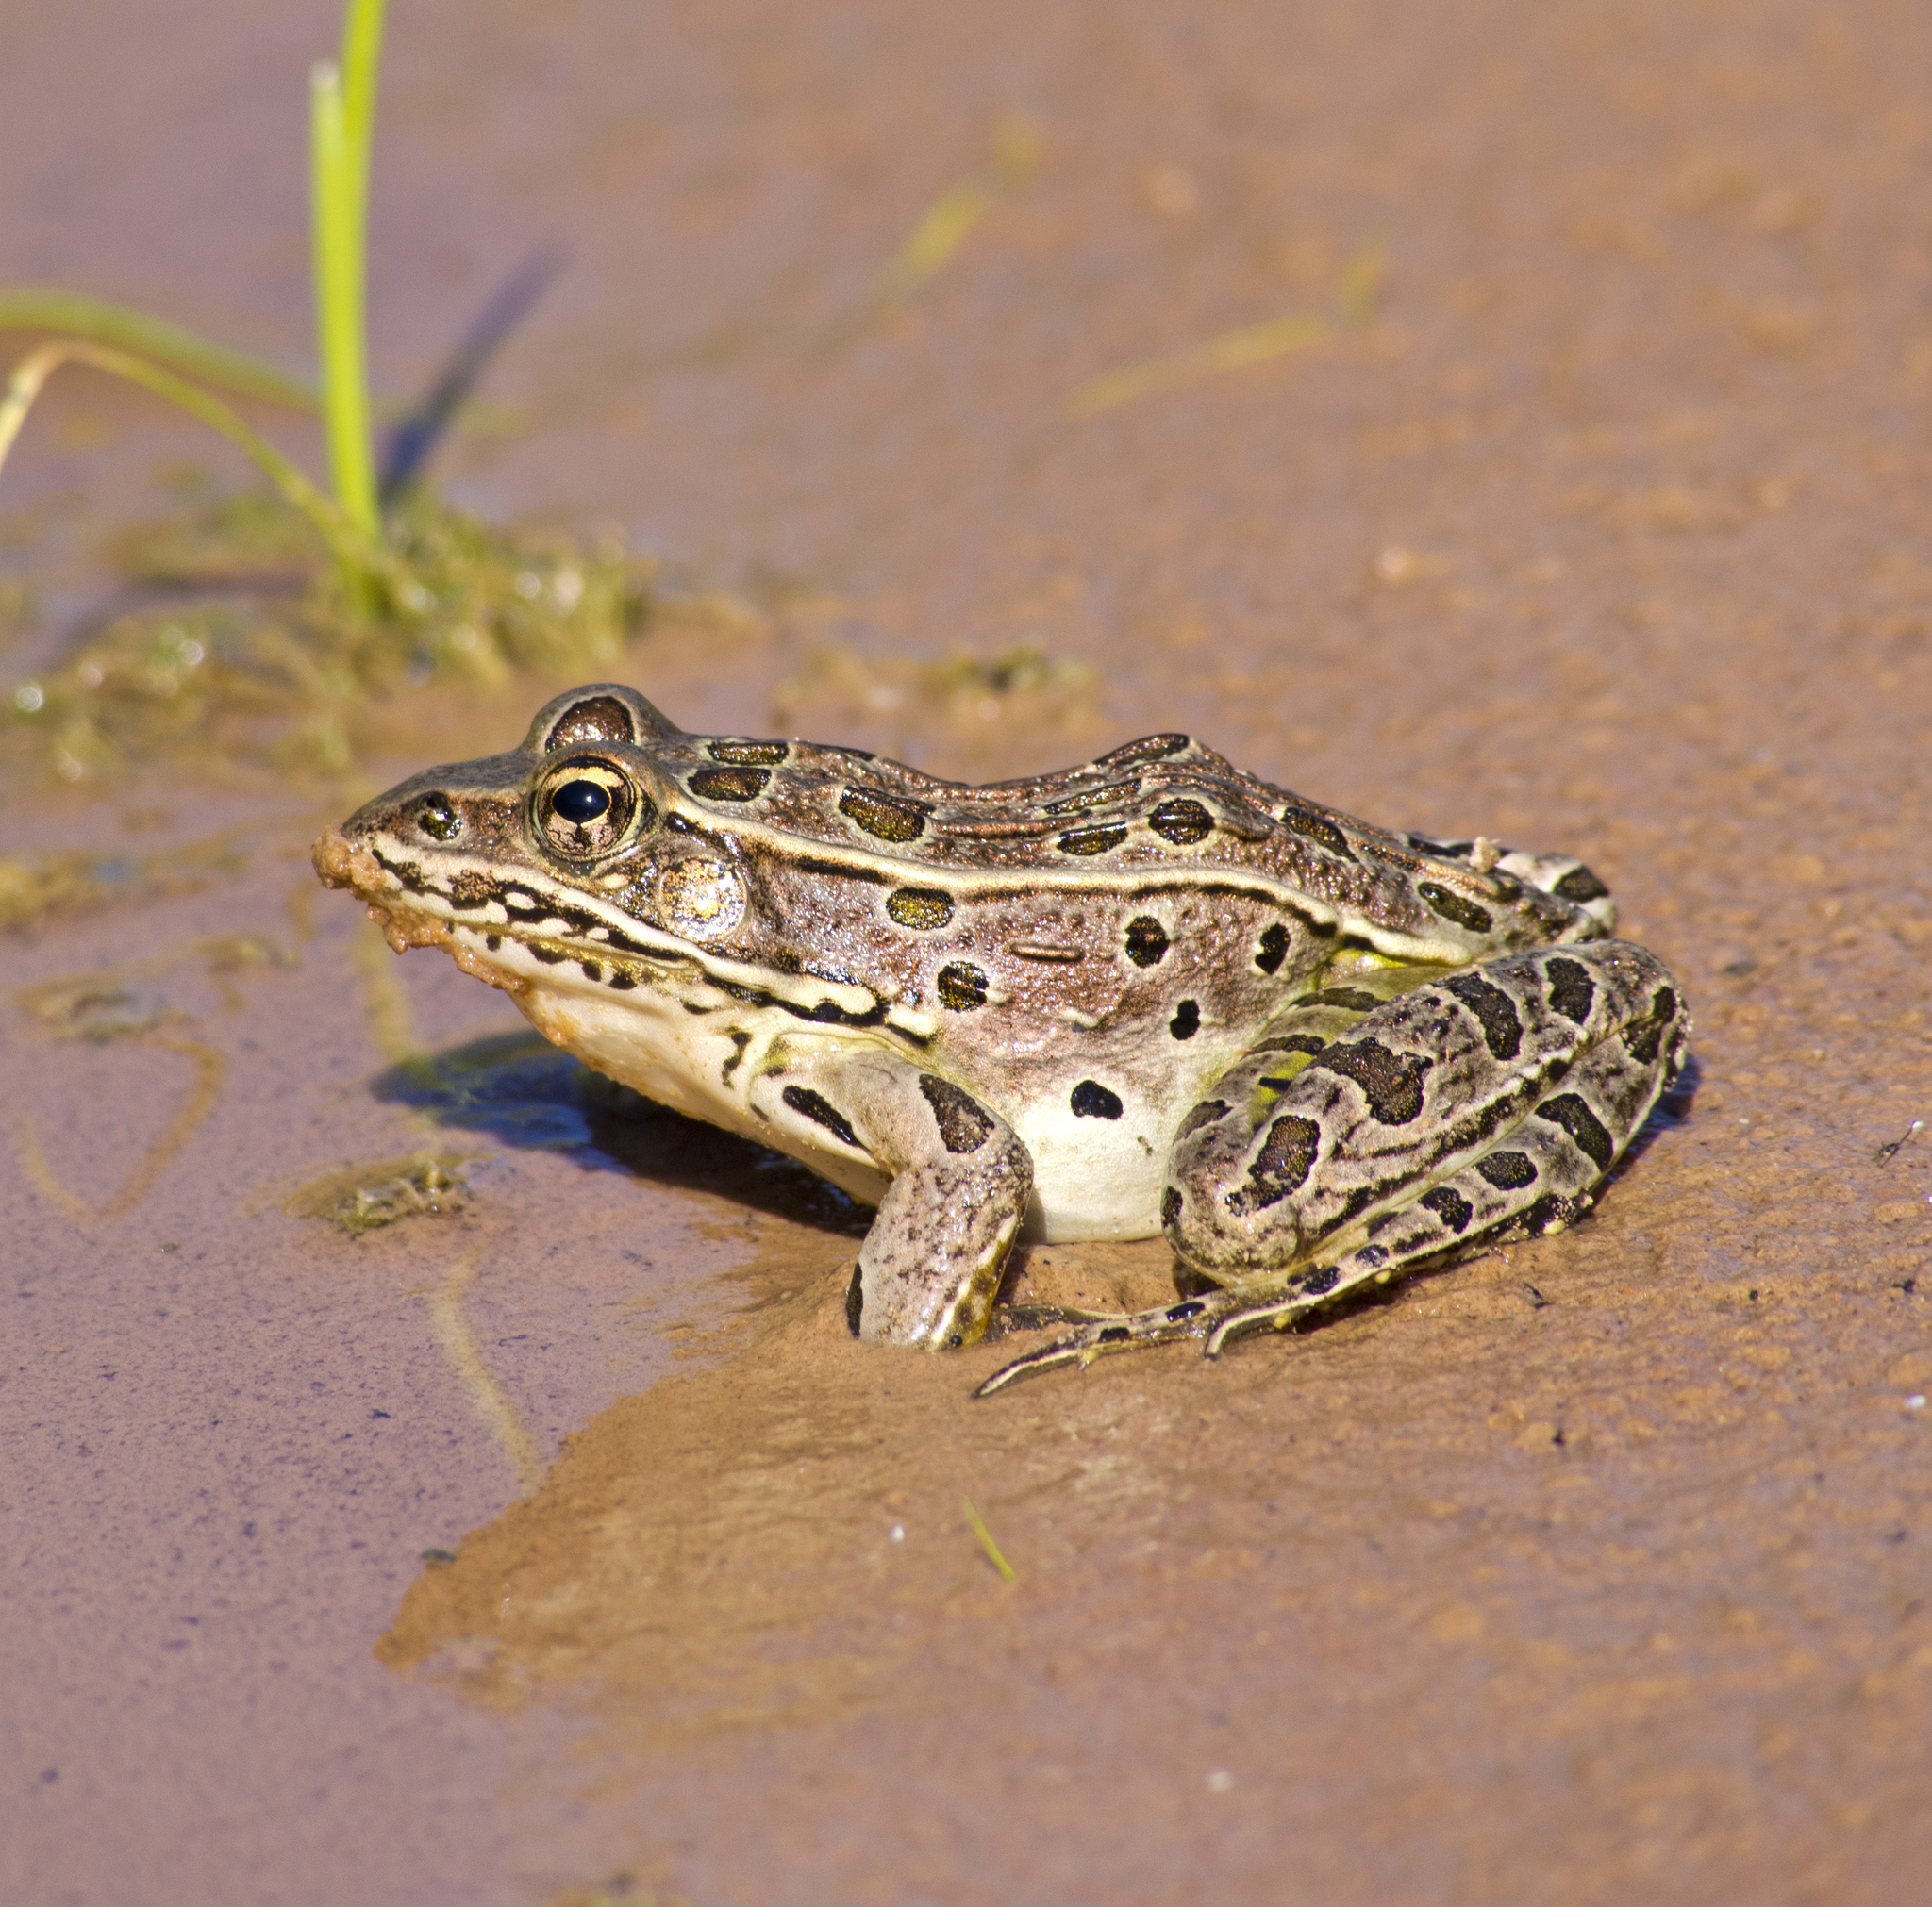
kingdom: Animalia
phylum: Chordata
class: Amphibia
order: Anura
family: Ranidae
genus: Lithobates
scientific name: Lithobates pipiens
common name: Northern leopard frog
